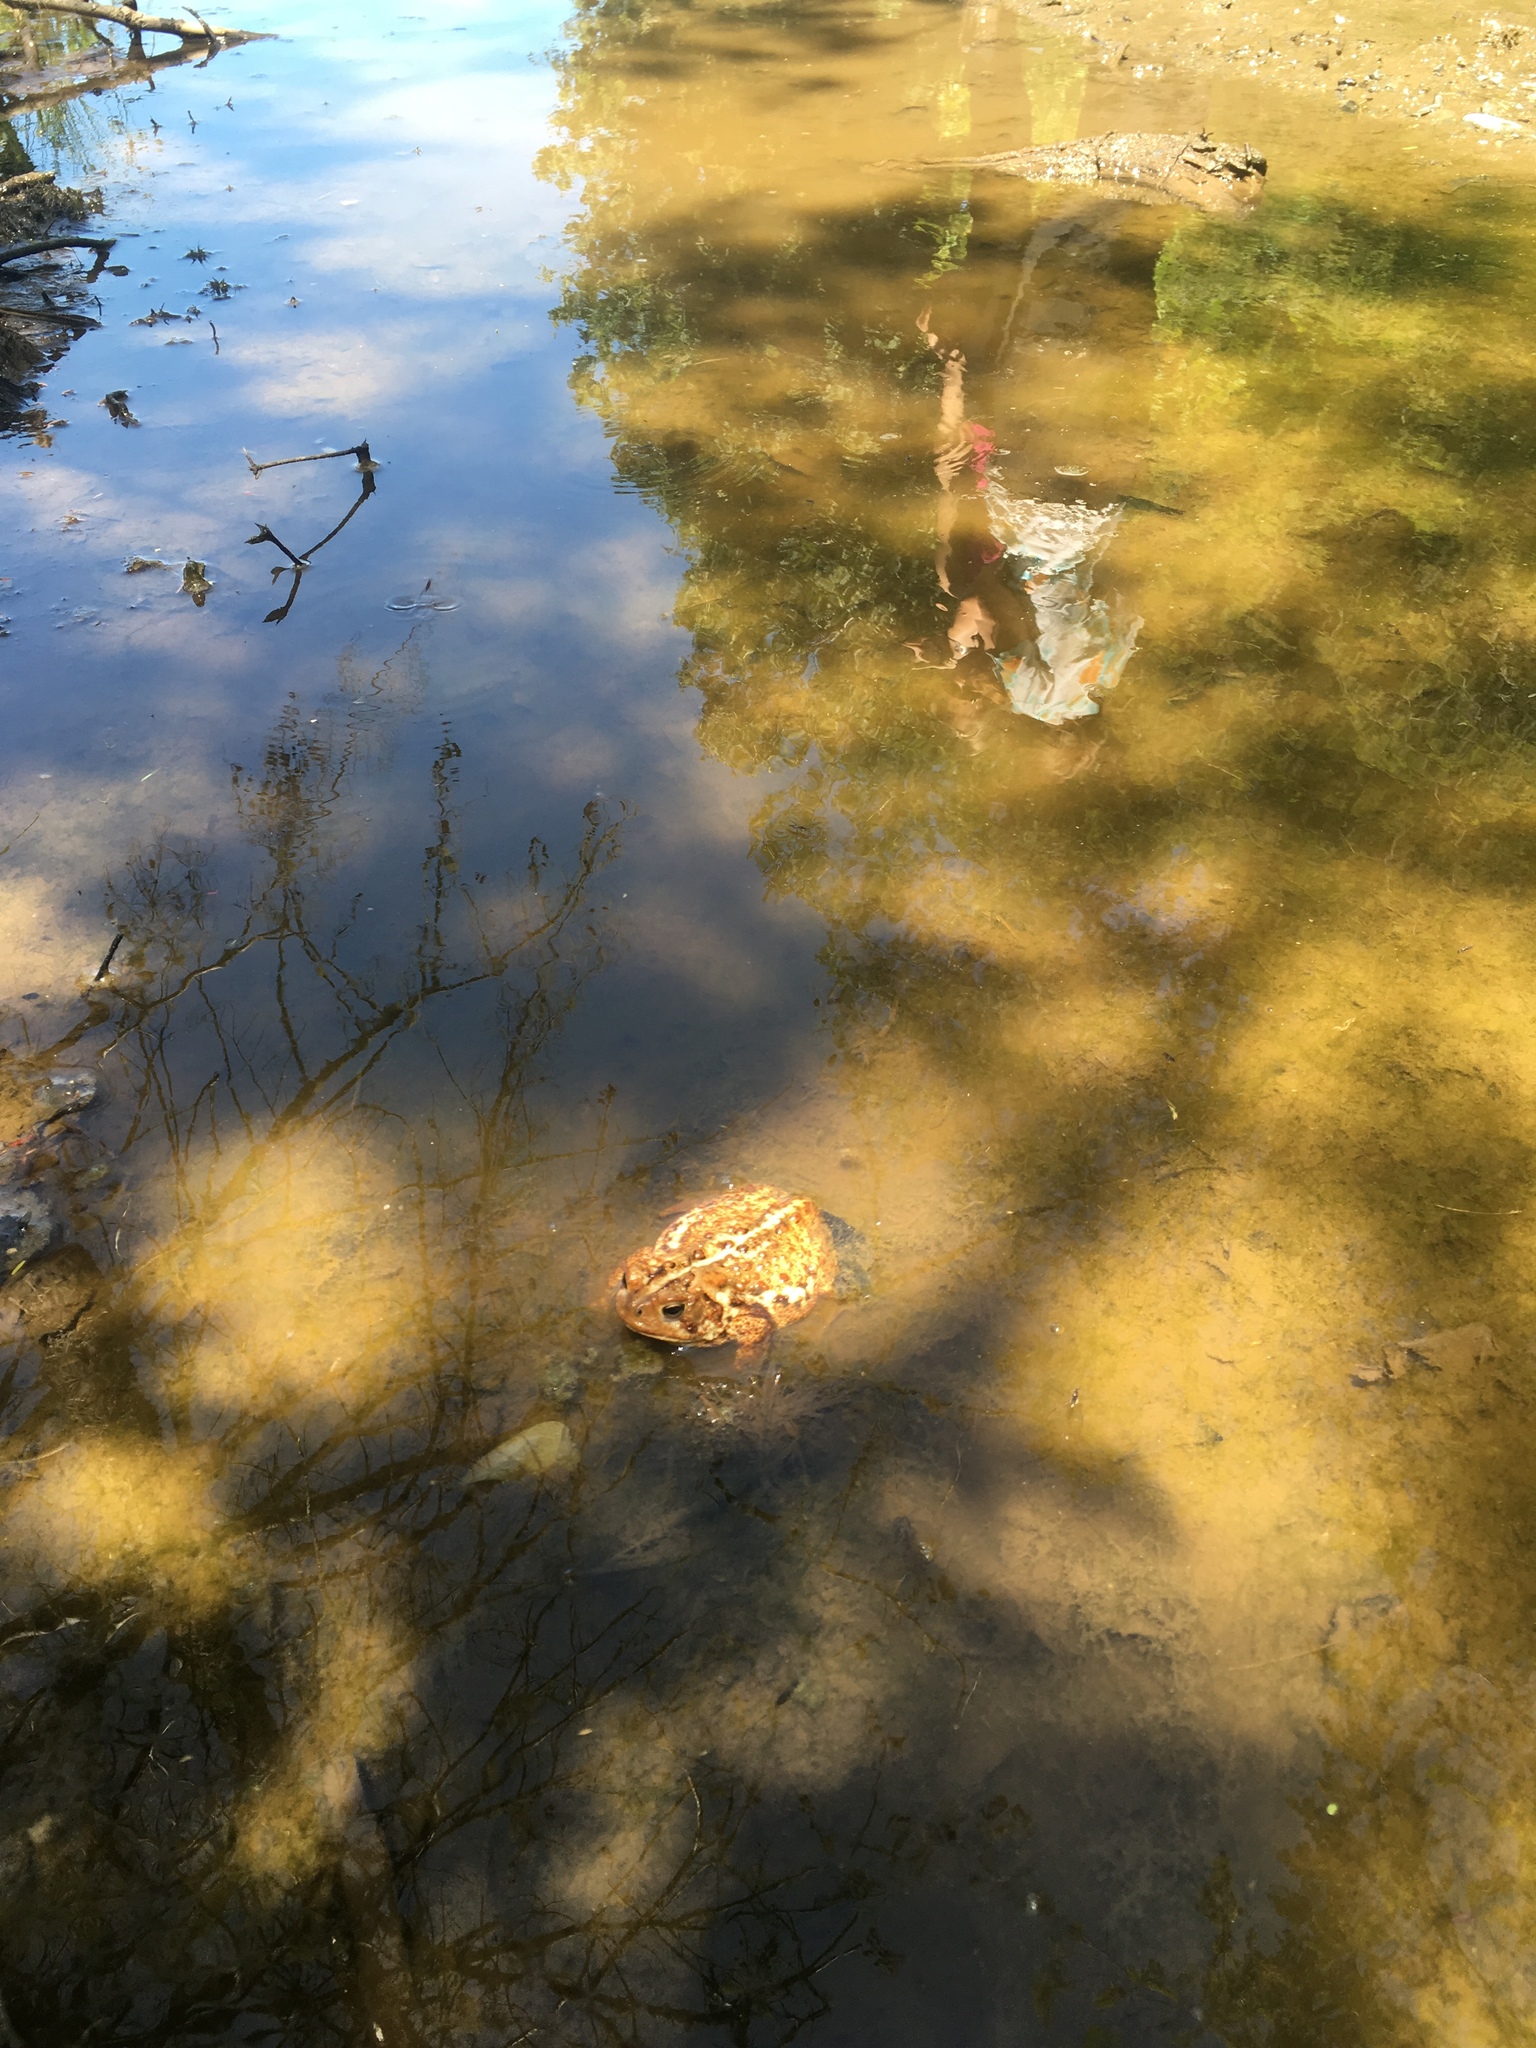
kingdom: Animalia
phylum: Chordata
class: Amphibia
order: Anura
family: Bufonidae
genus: Anaxyrus
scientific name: Anaxyrus americanus
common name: American toad
